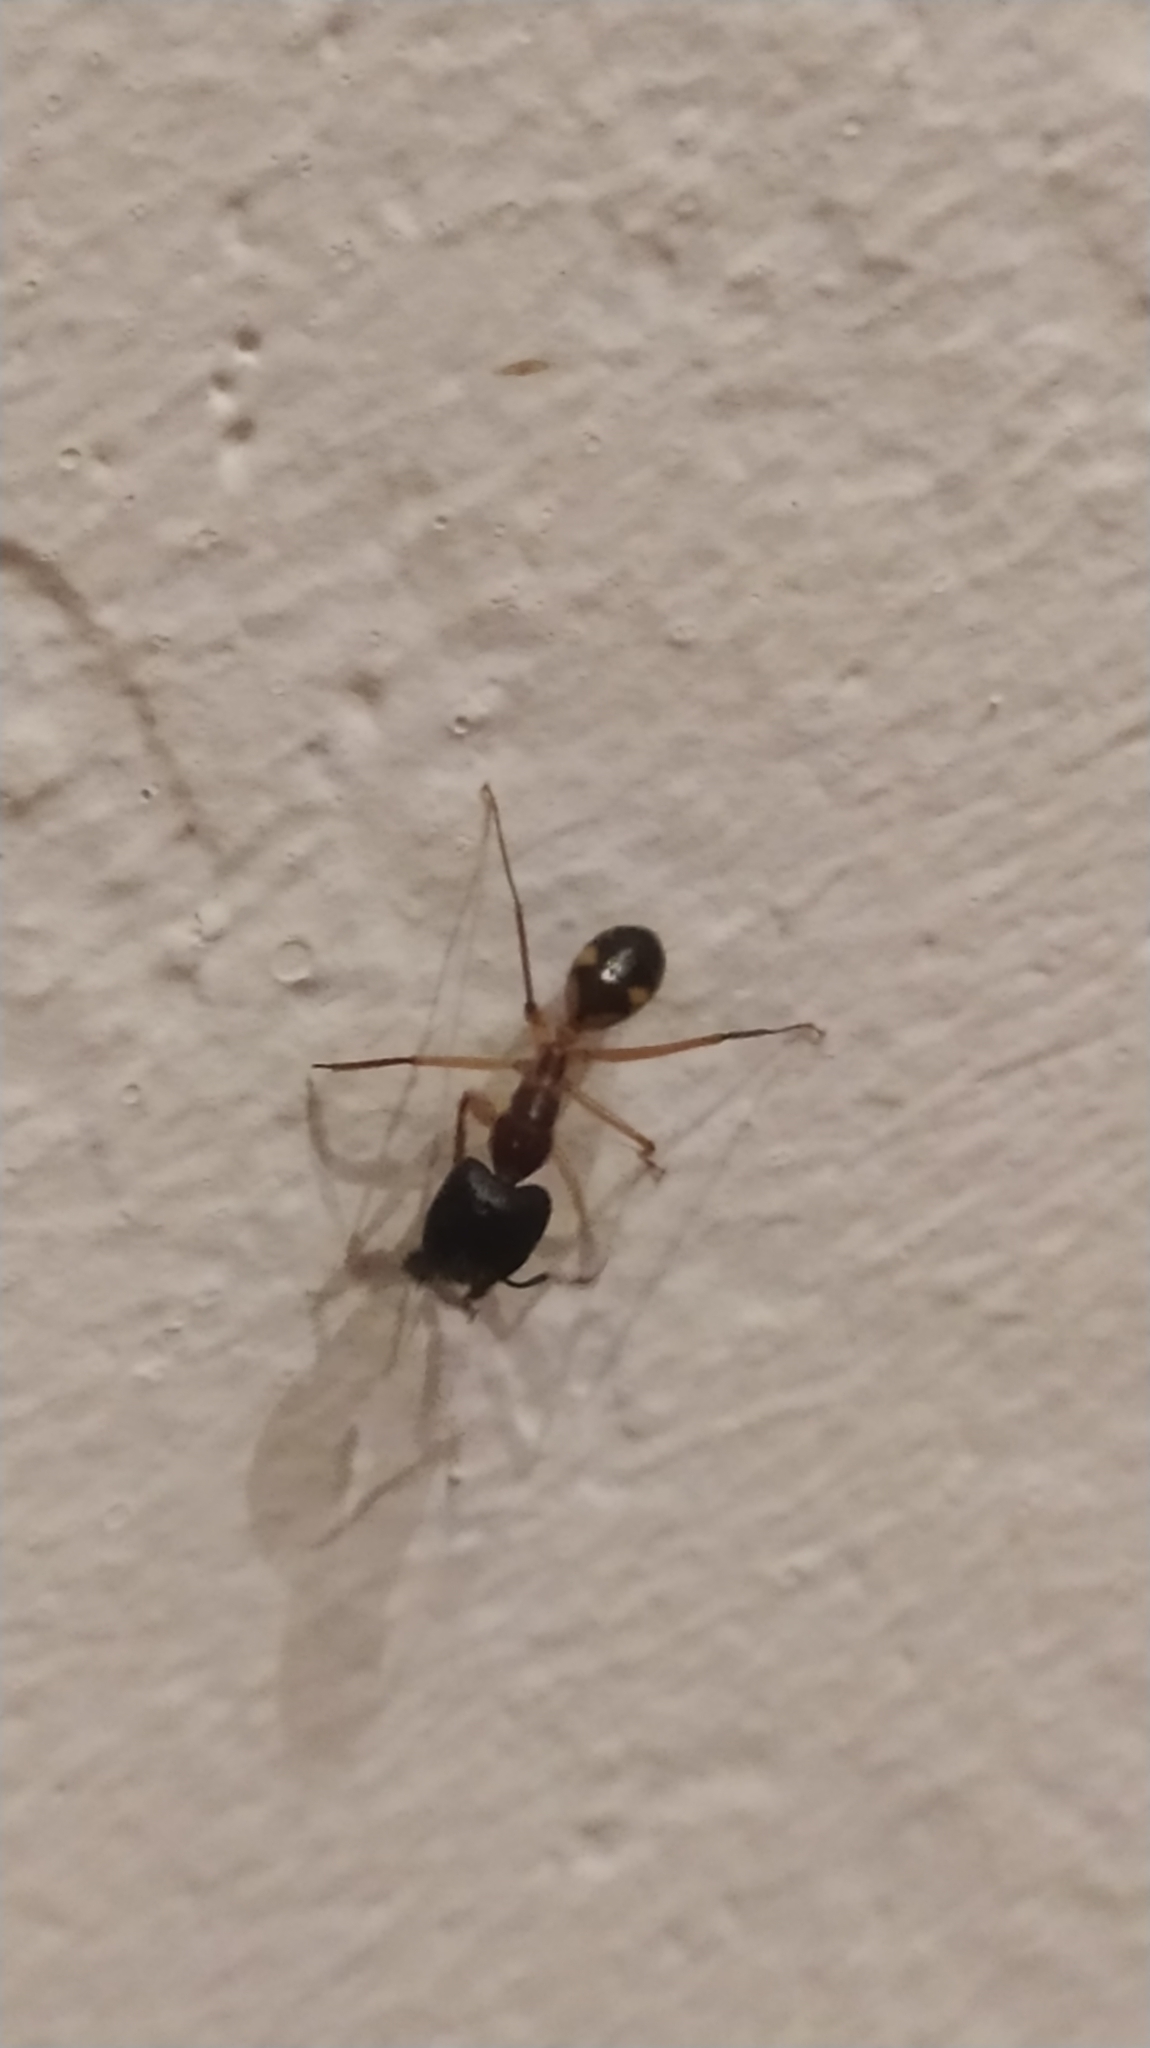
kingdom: Animalia
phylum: Arthropoda
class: Insecta
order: Hymenoptera
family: Formicidae
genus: Camponotus
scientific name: Camponotus substitutus
